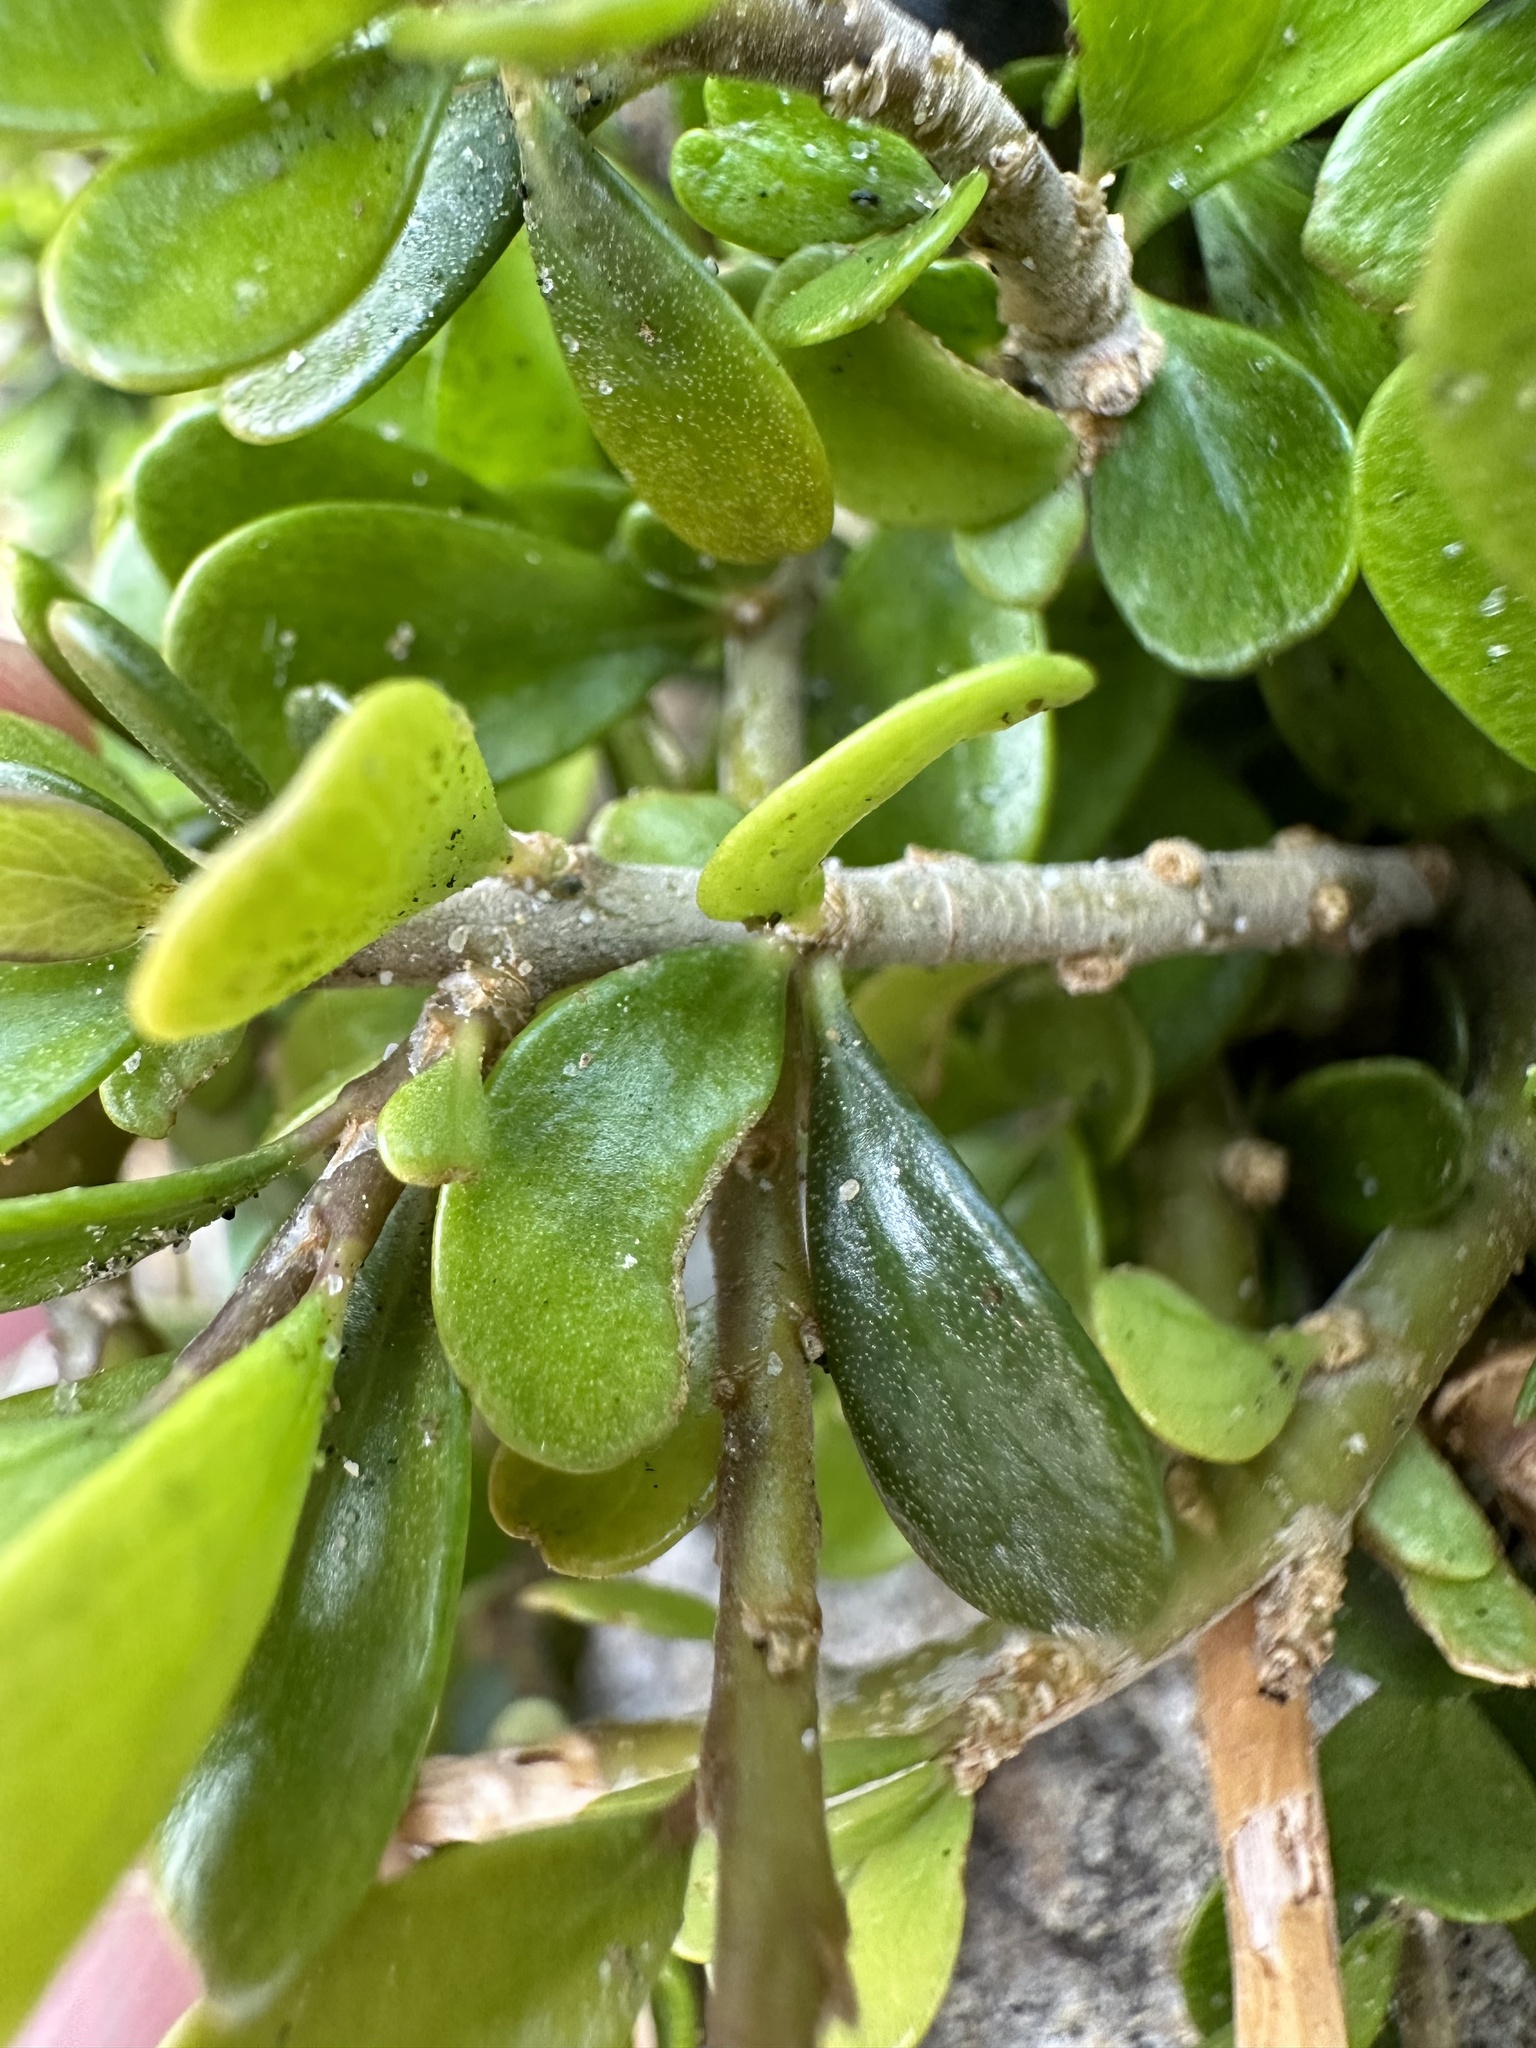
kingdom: Plantae
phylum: Tracheophyta
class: Magnoliopsida
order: Malpighiales
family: Violaceae
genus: Melicytus
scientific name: Melicytus crassifolius
